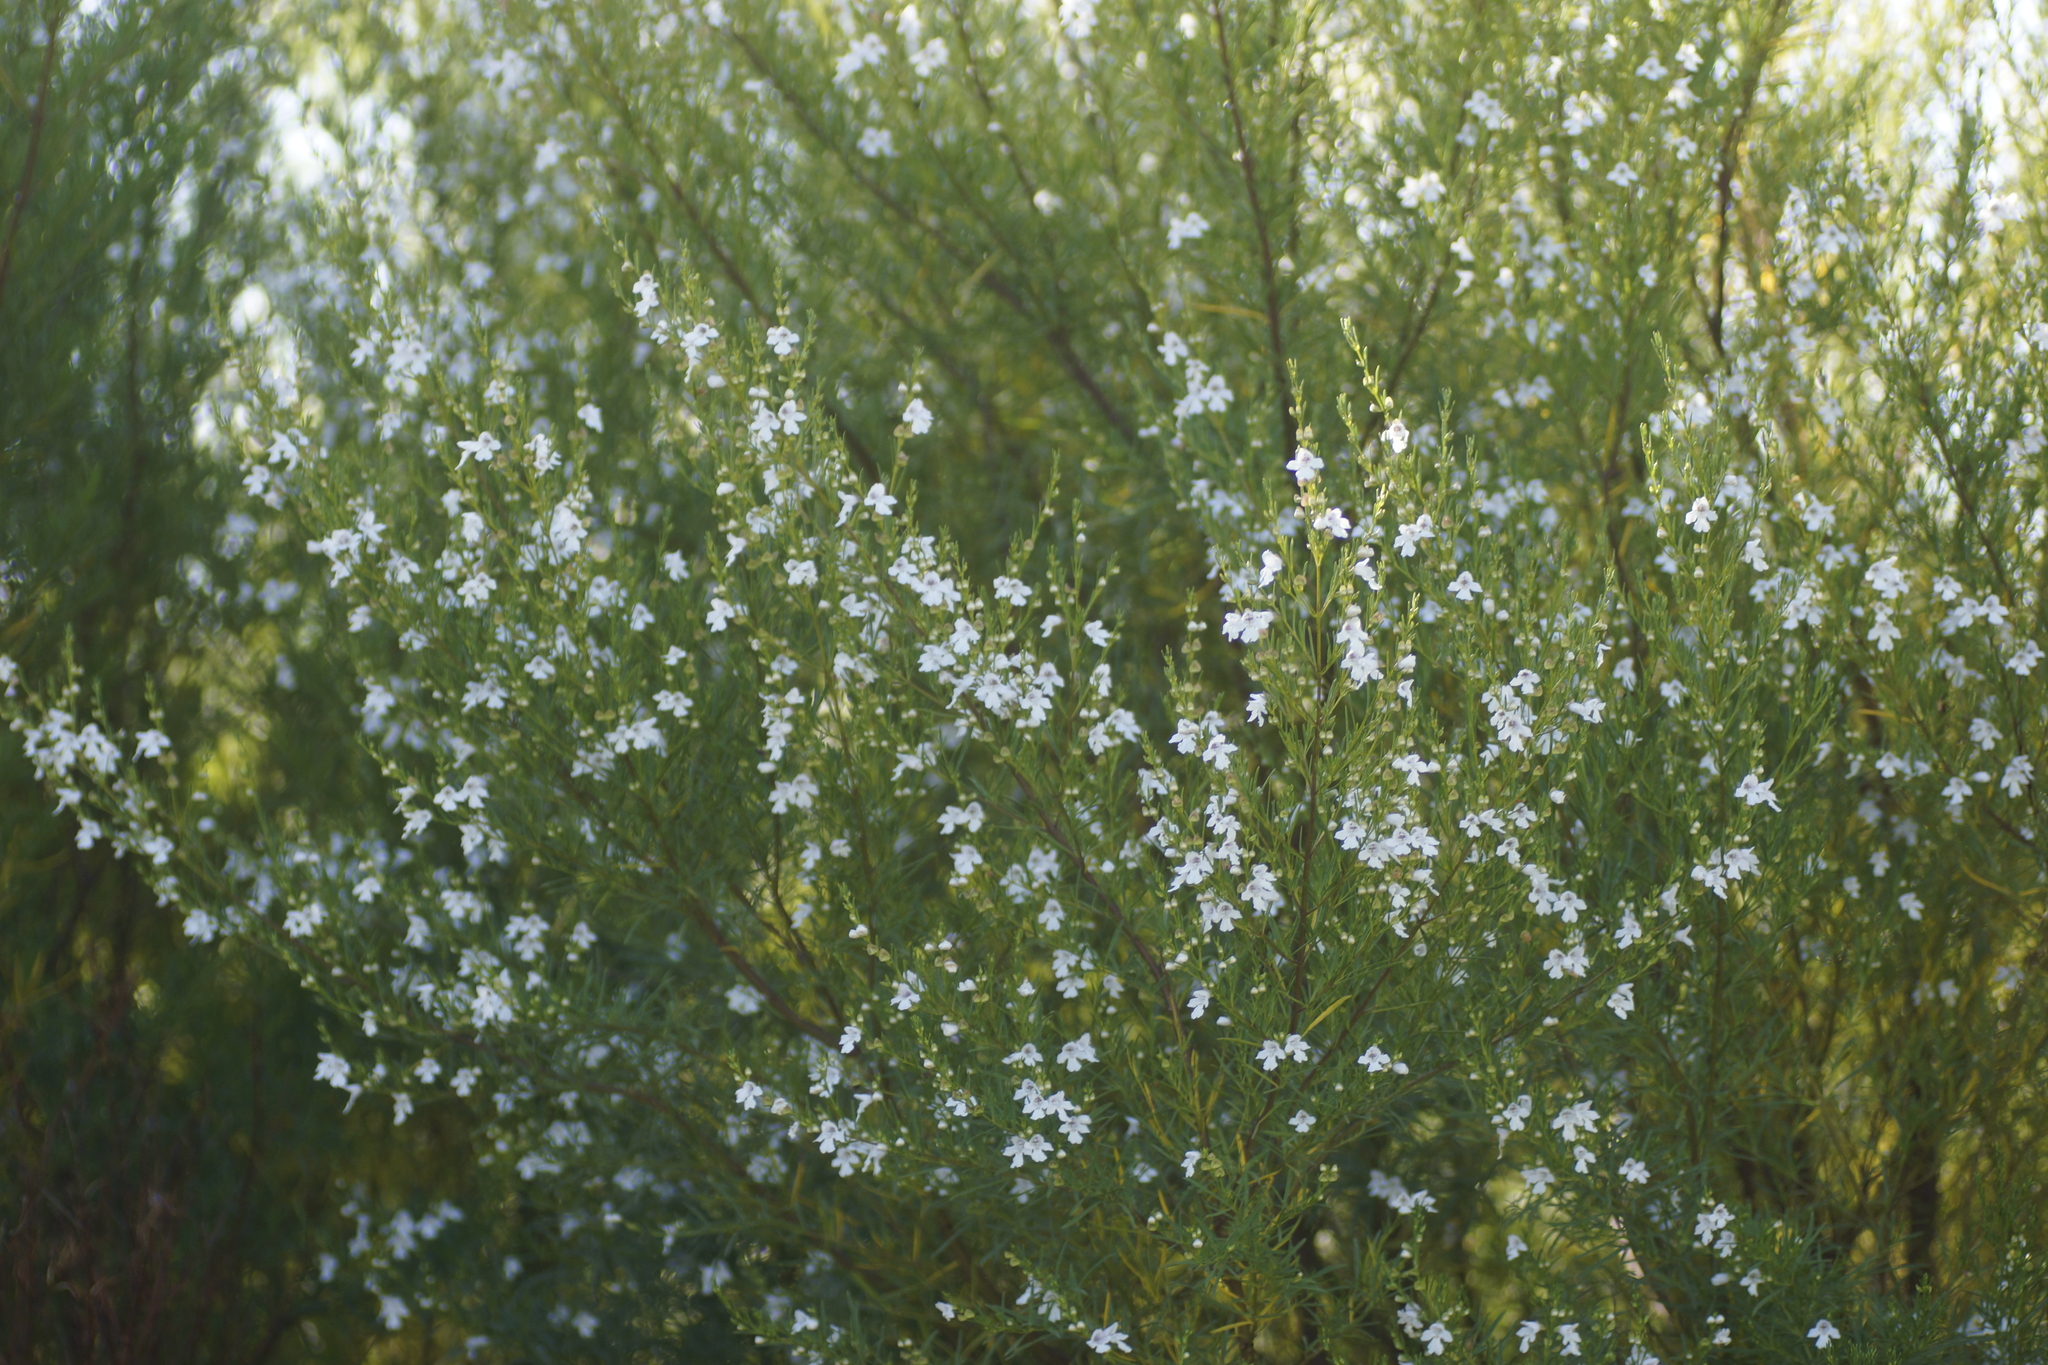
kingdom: Plantae
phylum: Tracheophyta
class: Magnoliopsida
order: Lamiales
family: Lamiaceae
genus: Prostanthera
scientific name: Prostanthera nivea
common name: Snowy mintbush
